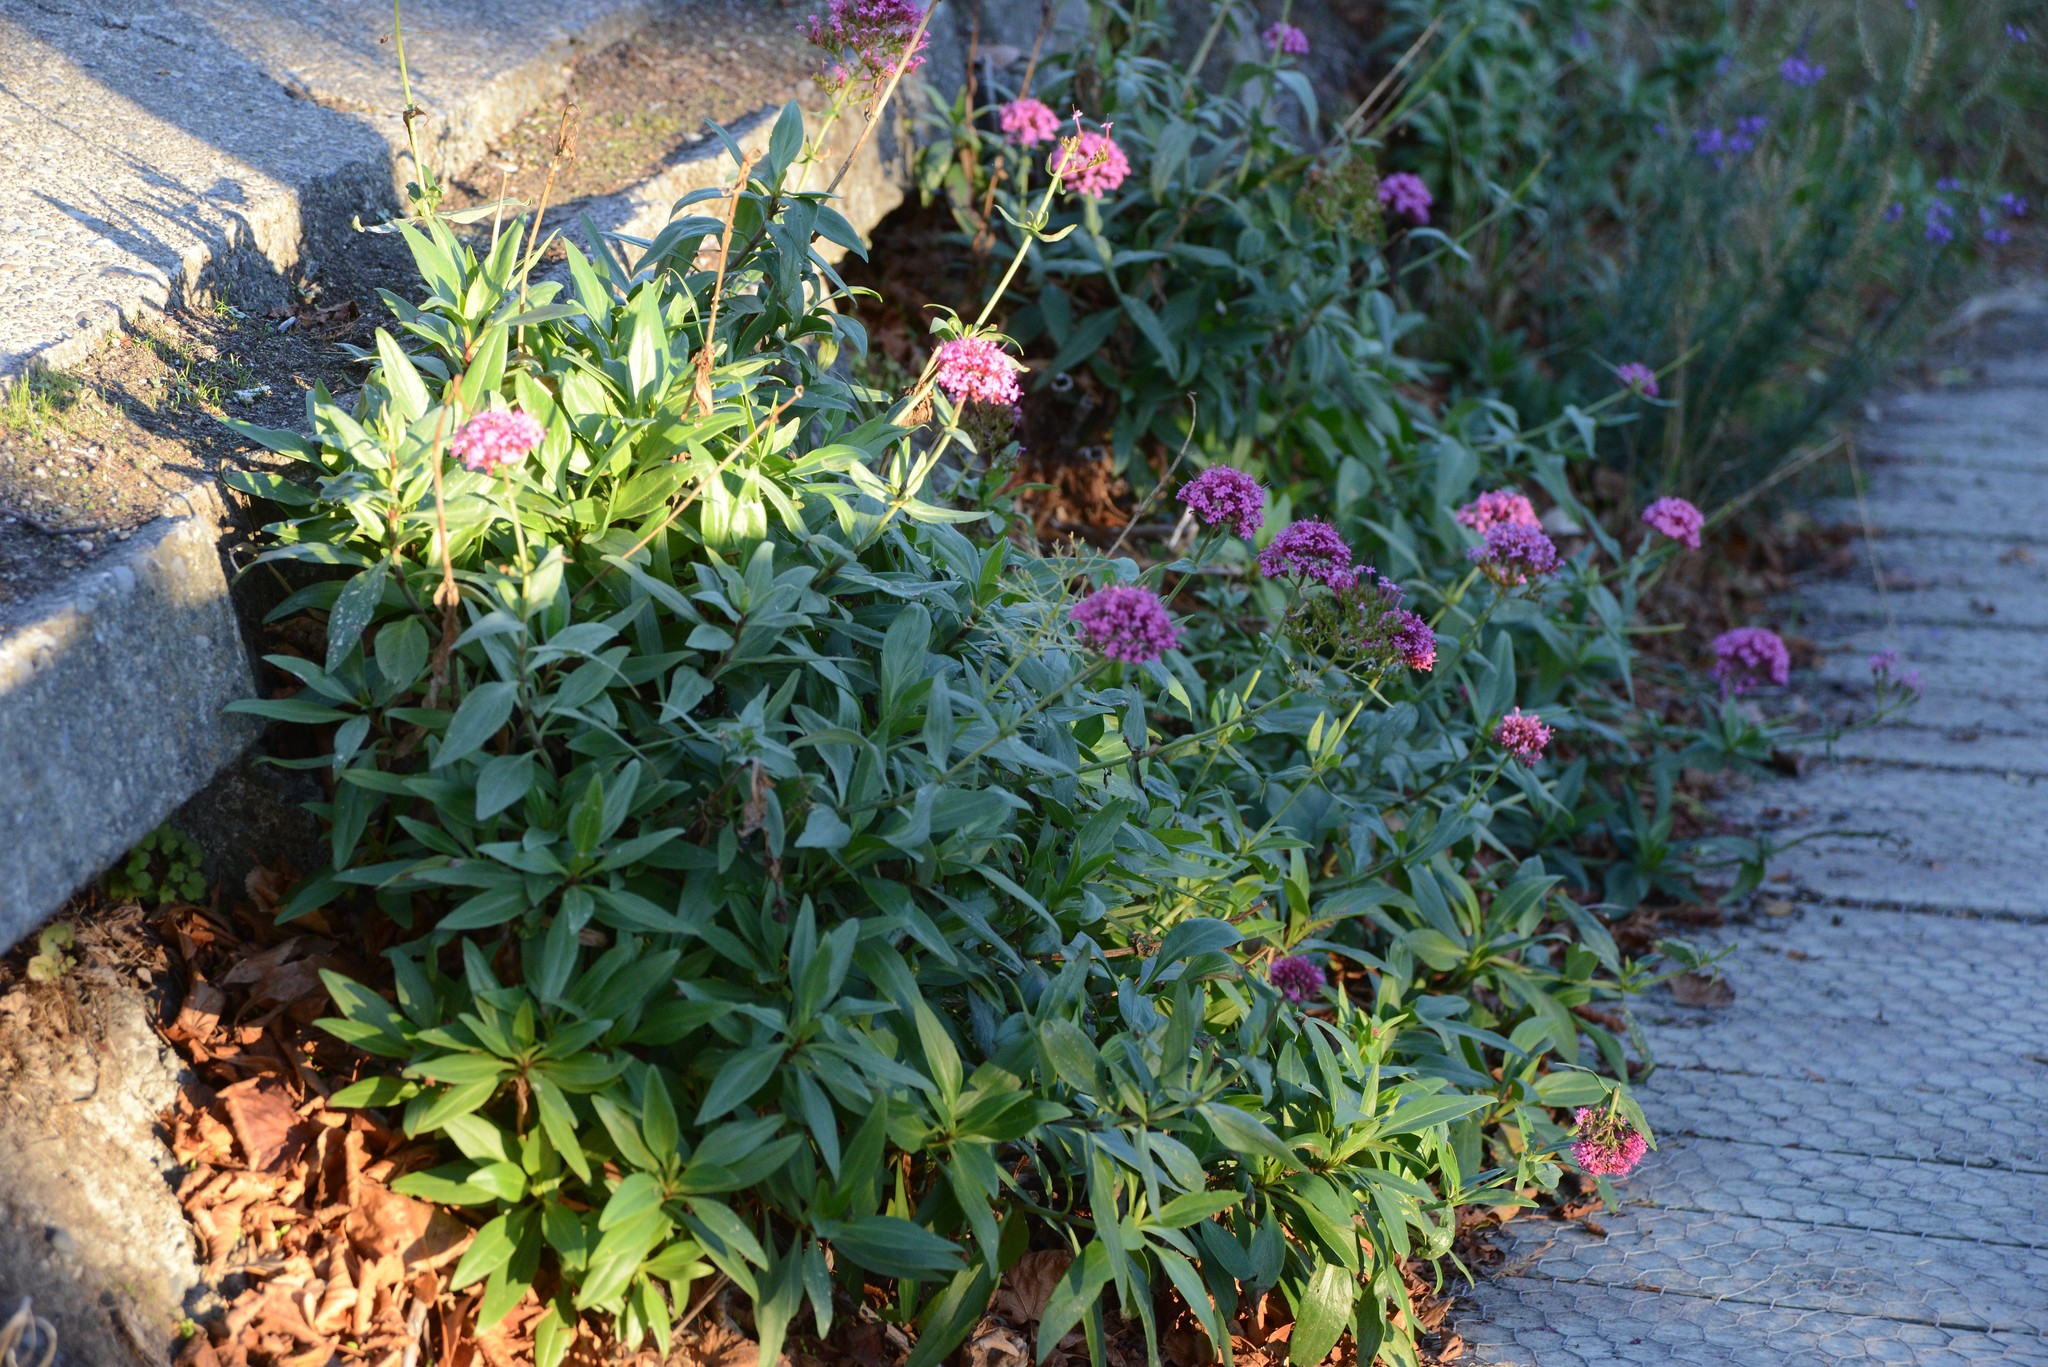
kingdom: Plantae
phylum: Tracheophyta
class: Magnoliopsida
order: Dipsacales
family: Caprifoliaceae
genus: Centranthus
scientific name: Centranthus ruber
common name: Red valerian
